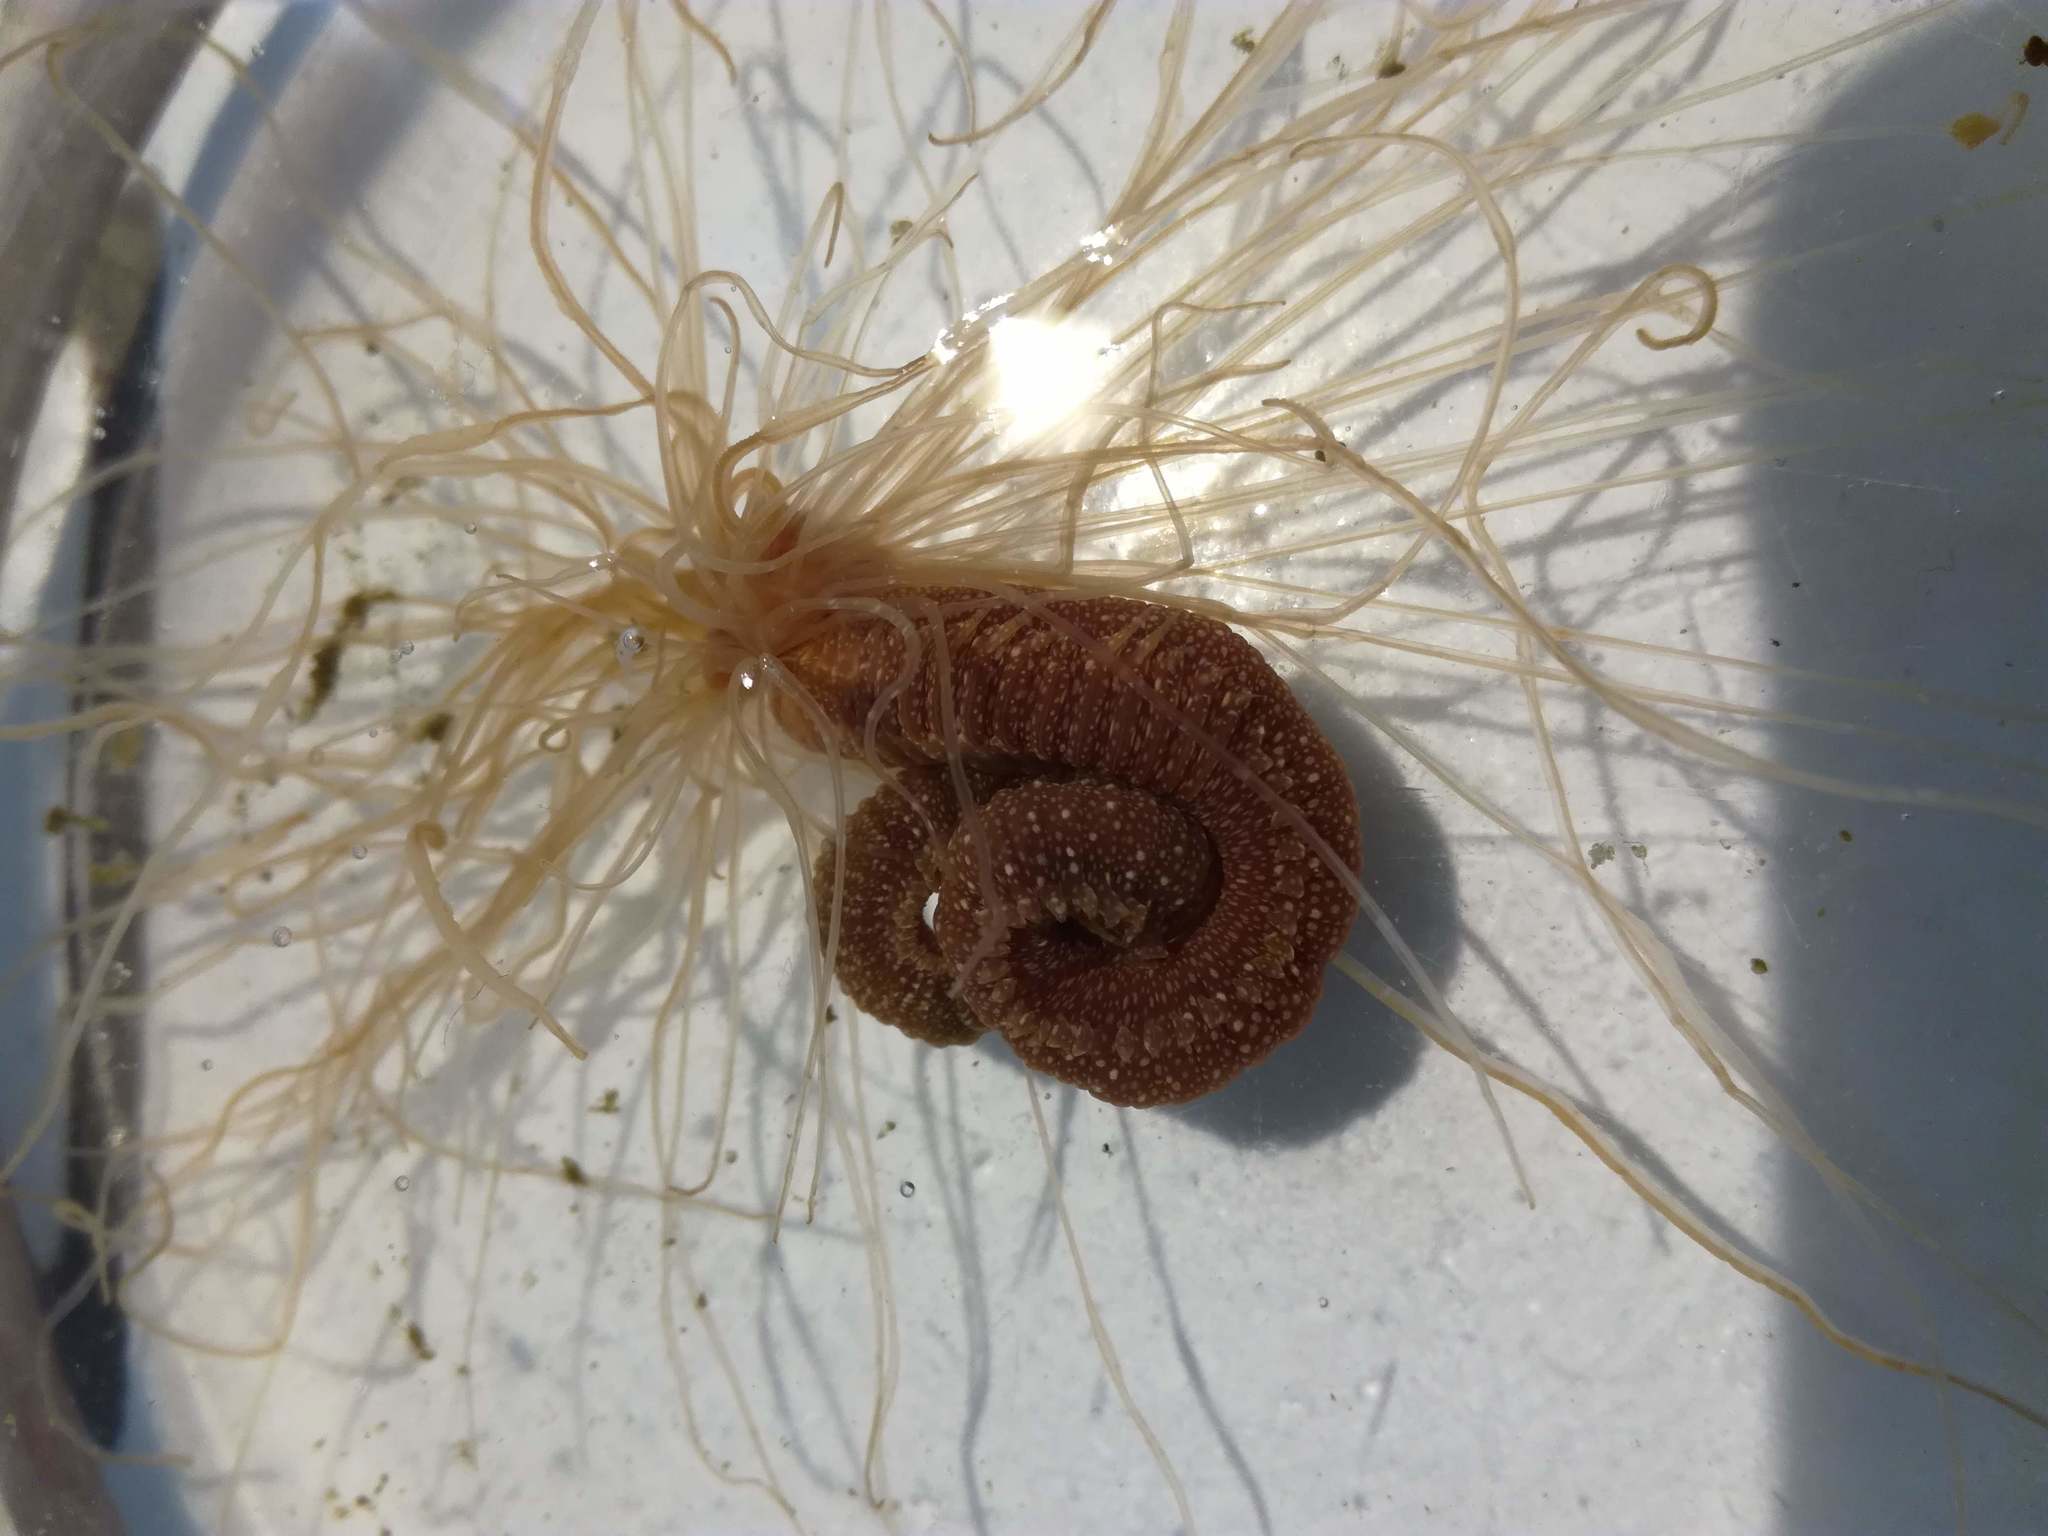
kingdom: Animalia
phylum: Annelida
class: Polychaeta
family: Terebellidae
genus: Eupolymnia
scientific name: Eupolymnia nebulosa
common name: Strawberry worm
